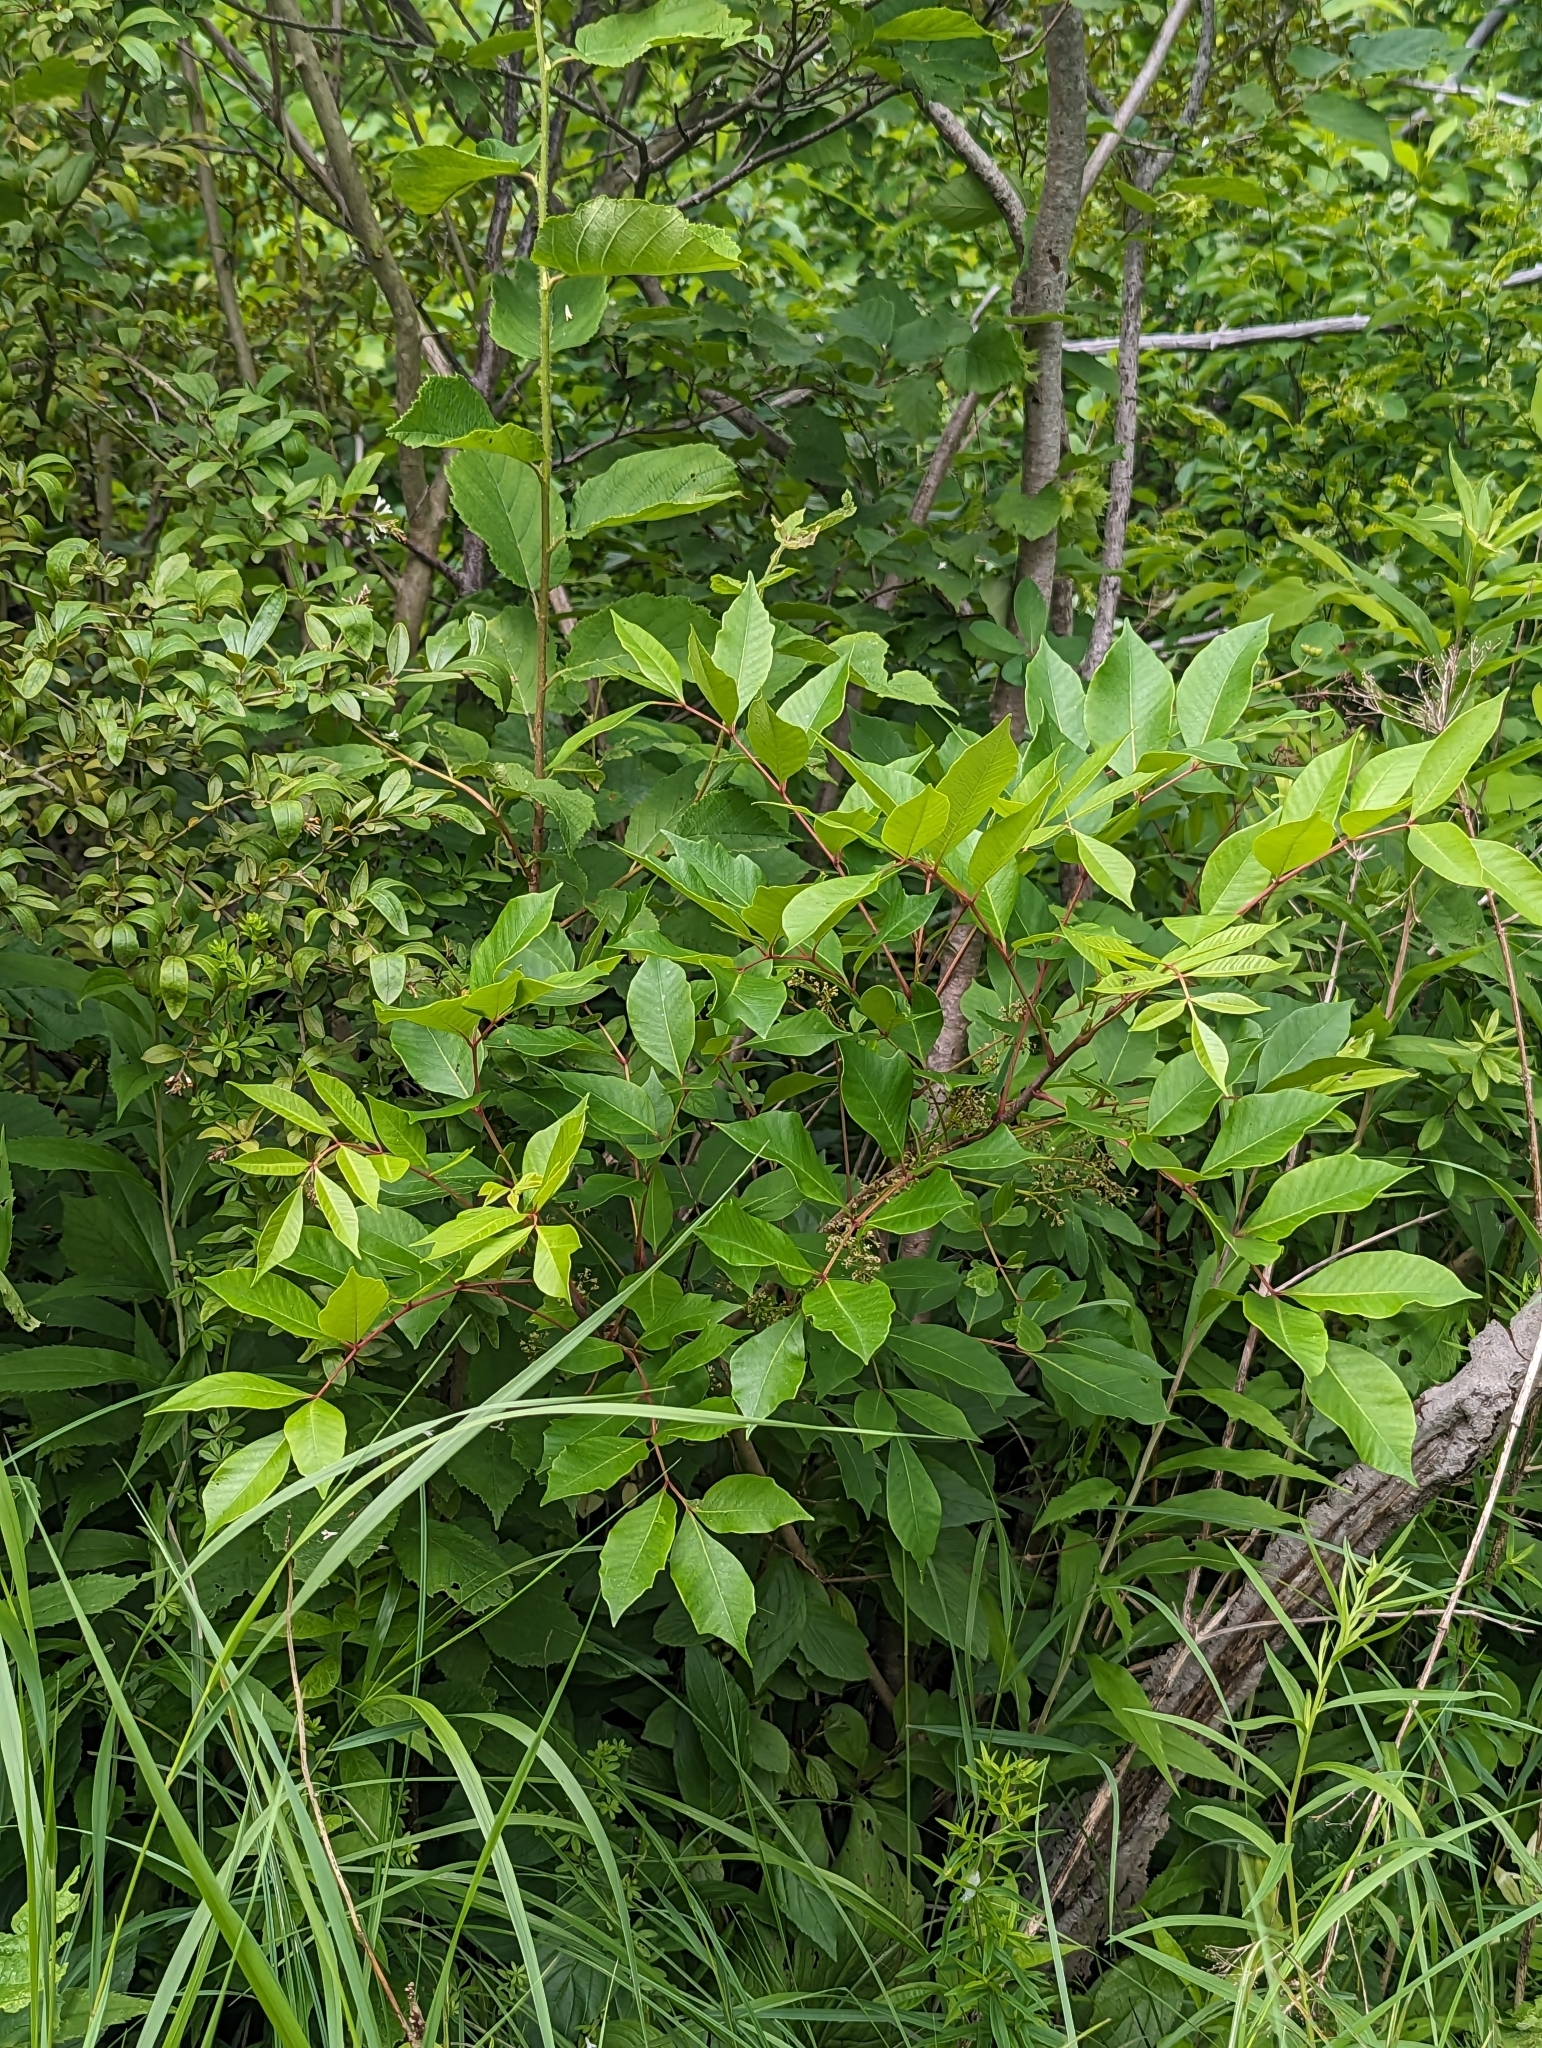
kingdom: Plantae
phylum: Tracheophyta
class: Magnoliopsida
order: Sapindales
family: Anacardiaceae
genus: Toxicodendron
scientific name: Toxicodendron vernix
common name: Poison sumac
